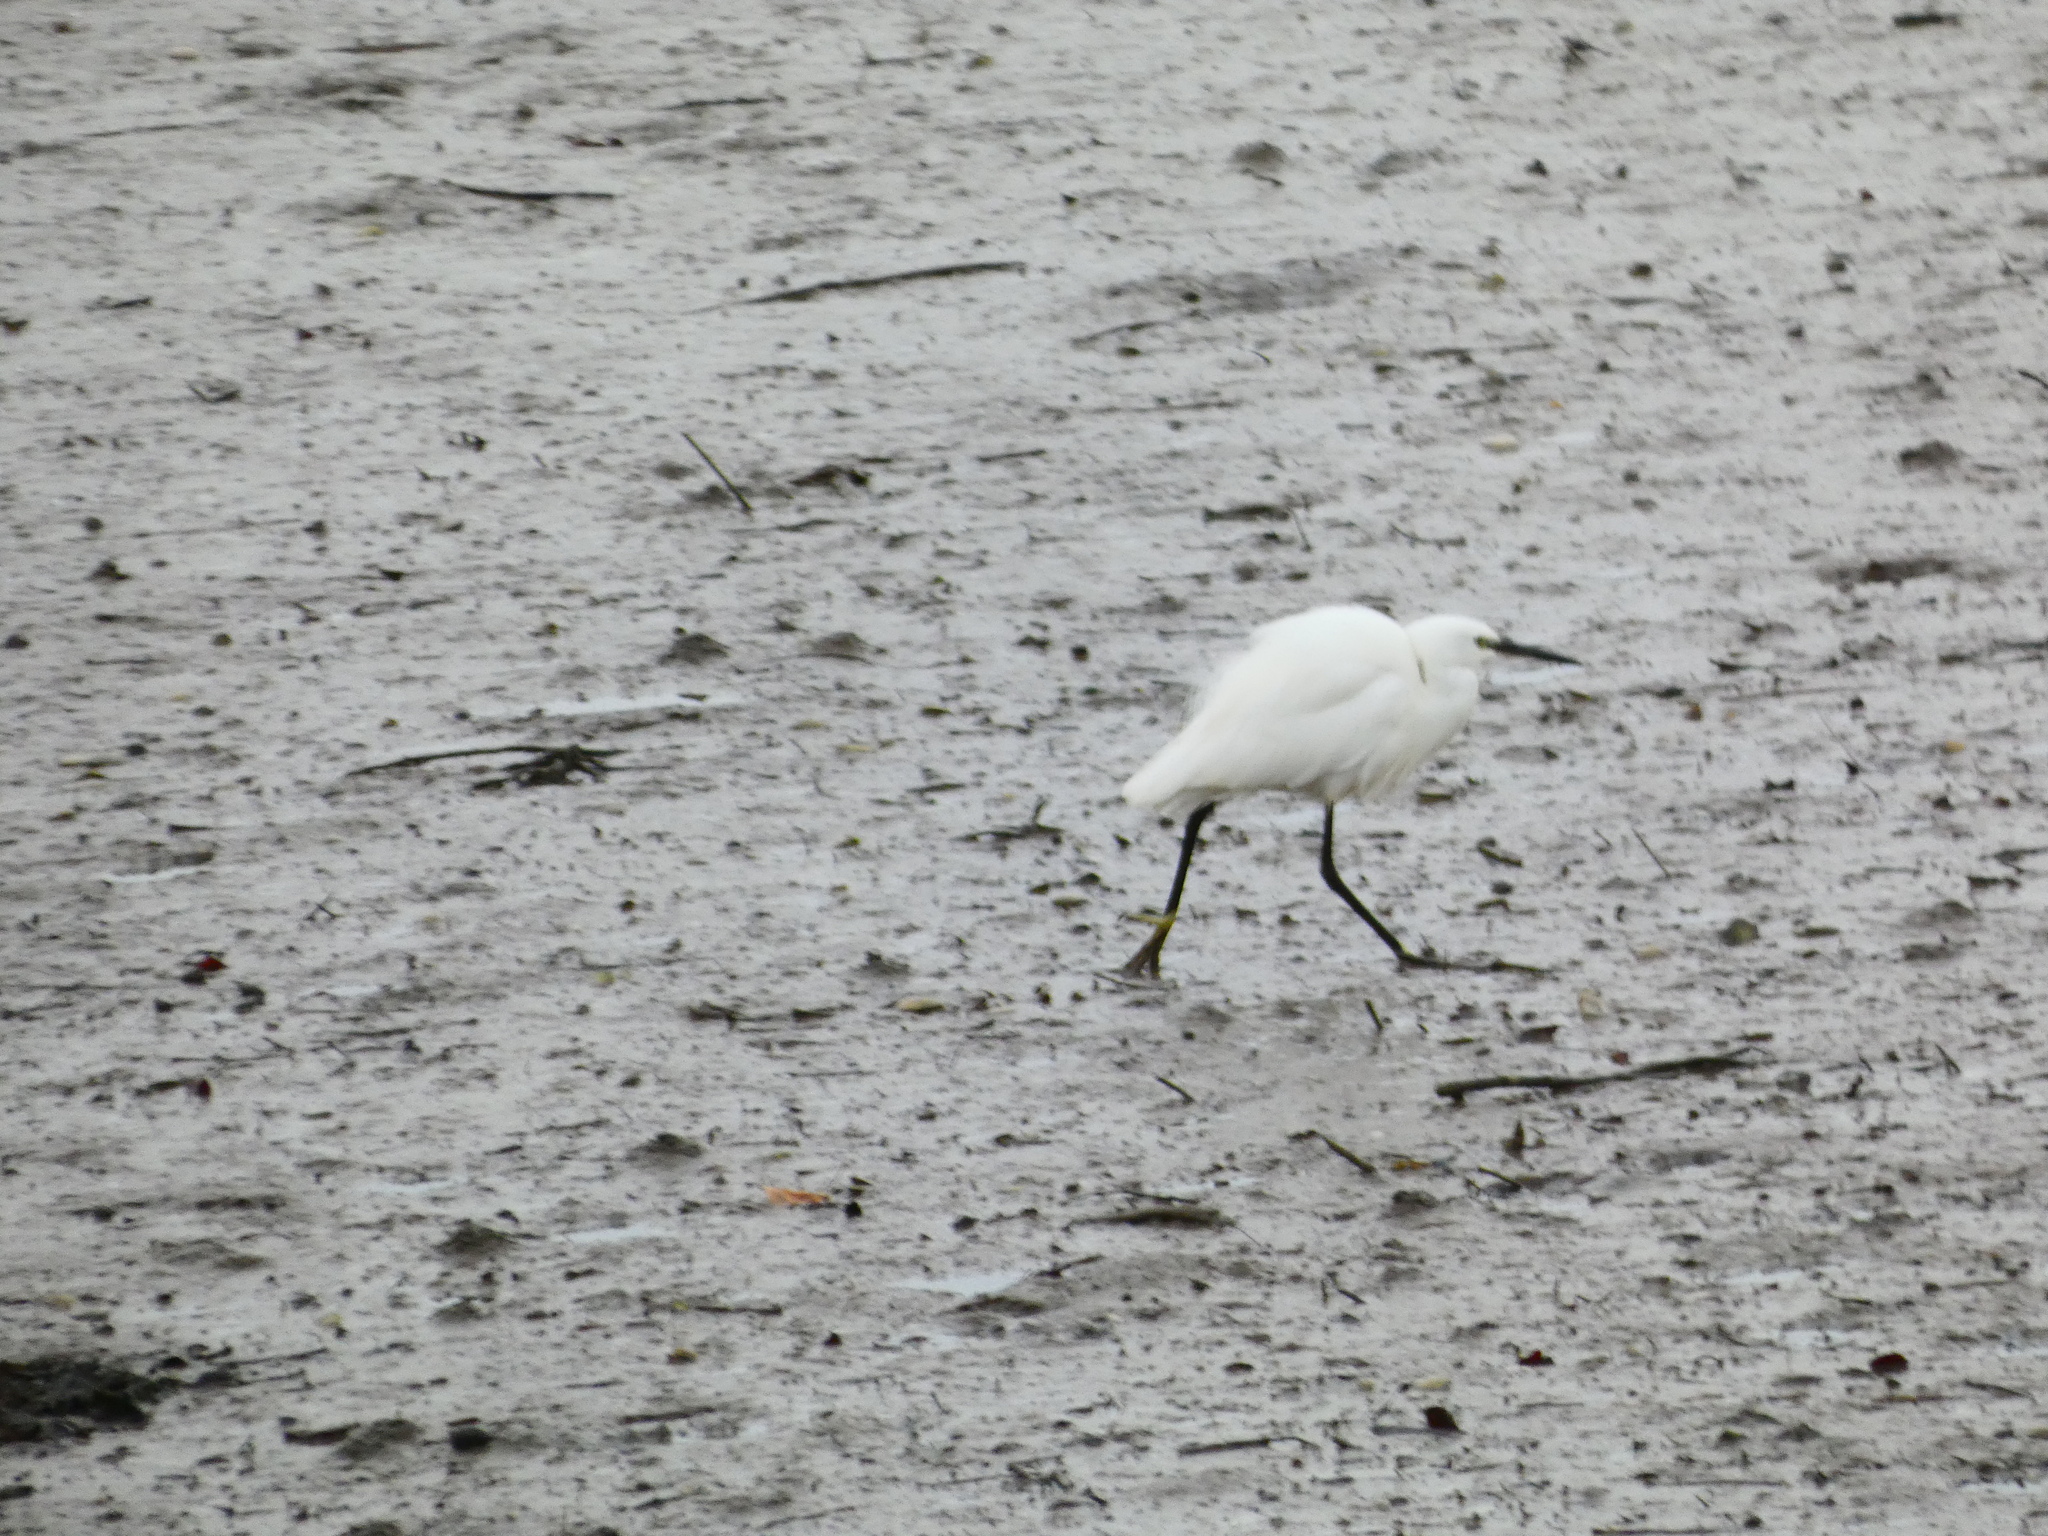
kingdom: Animalia
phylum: Chordata
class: Aves
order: Pelecaniformes
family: Ardeidae
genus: Egretta
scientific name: Egretta garzetta
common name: Little egret
